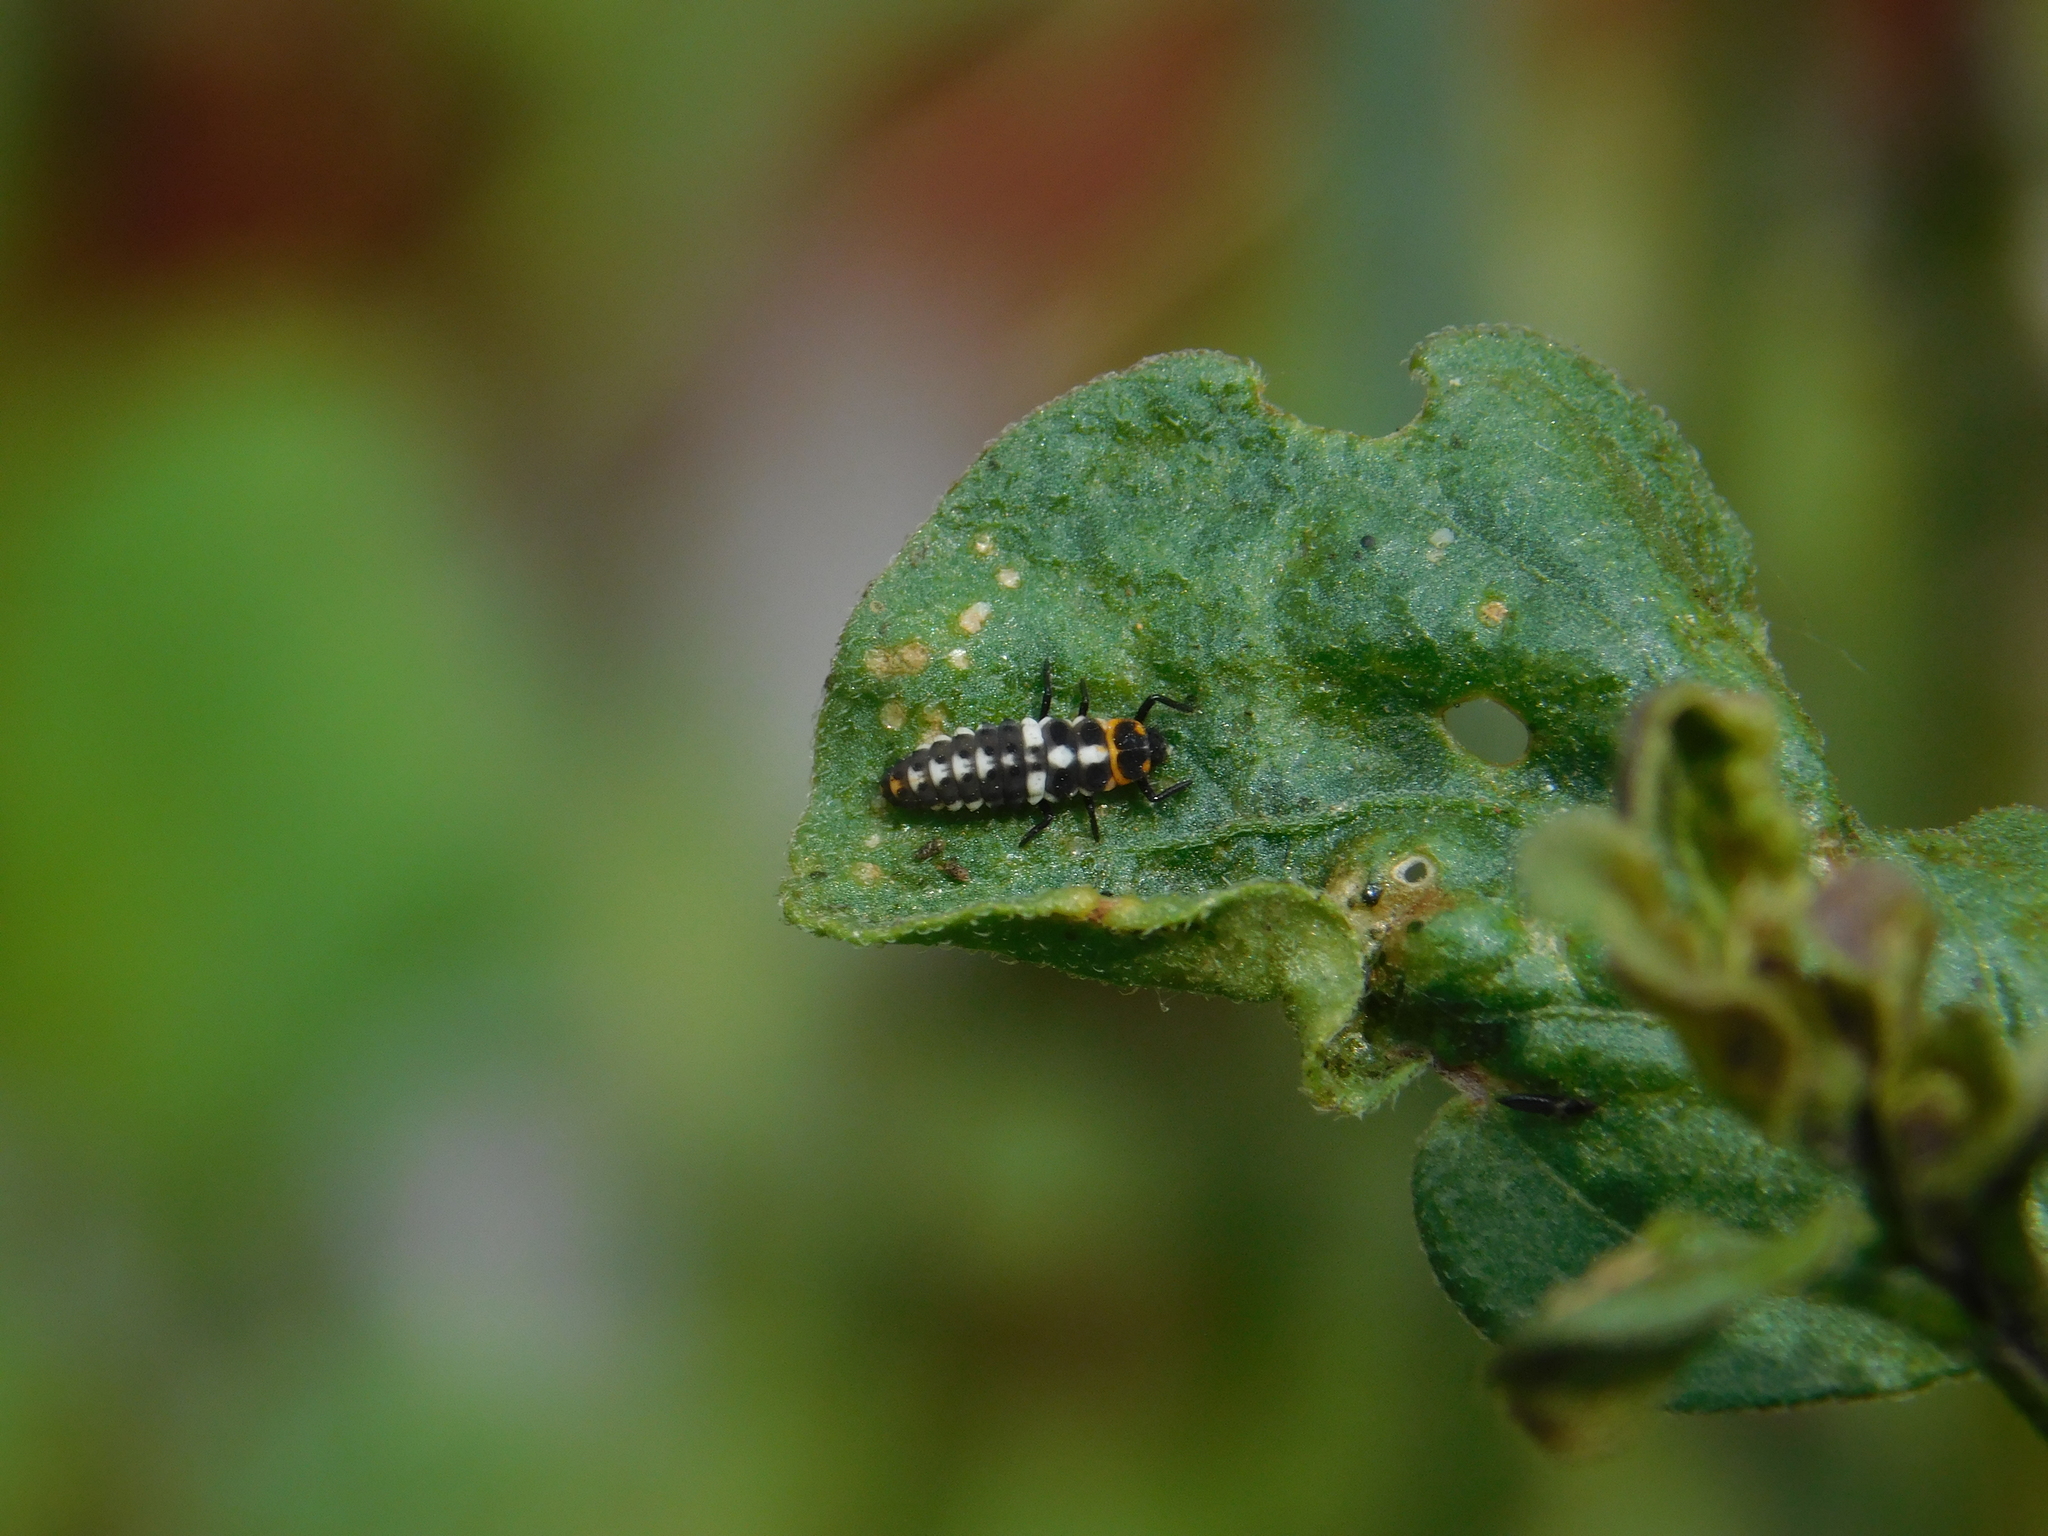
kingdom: Animalia
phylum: Arthropoda
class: Insecta
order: Coleoptera
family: Coccinellidae
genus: Eriopis
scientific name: Eriopis connexa
